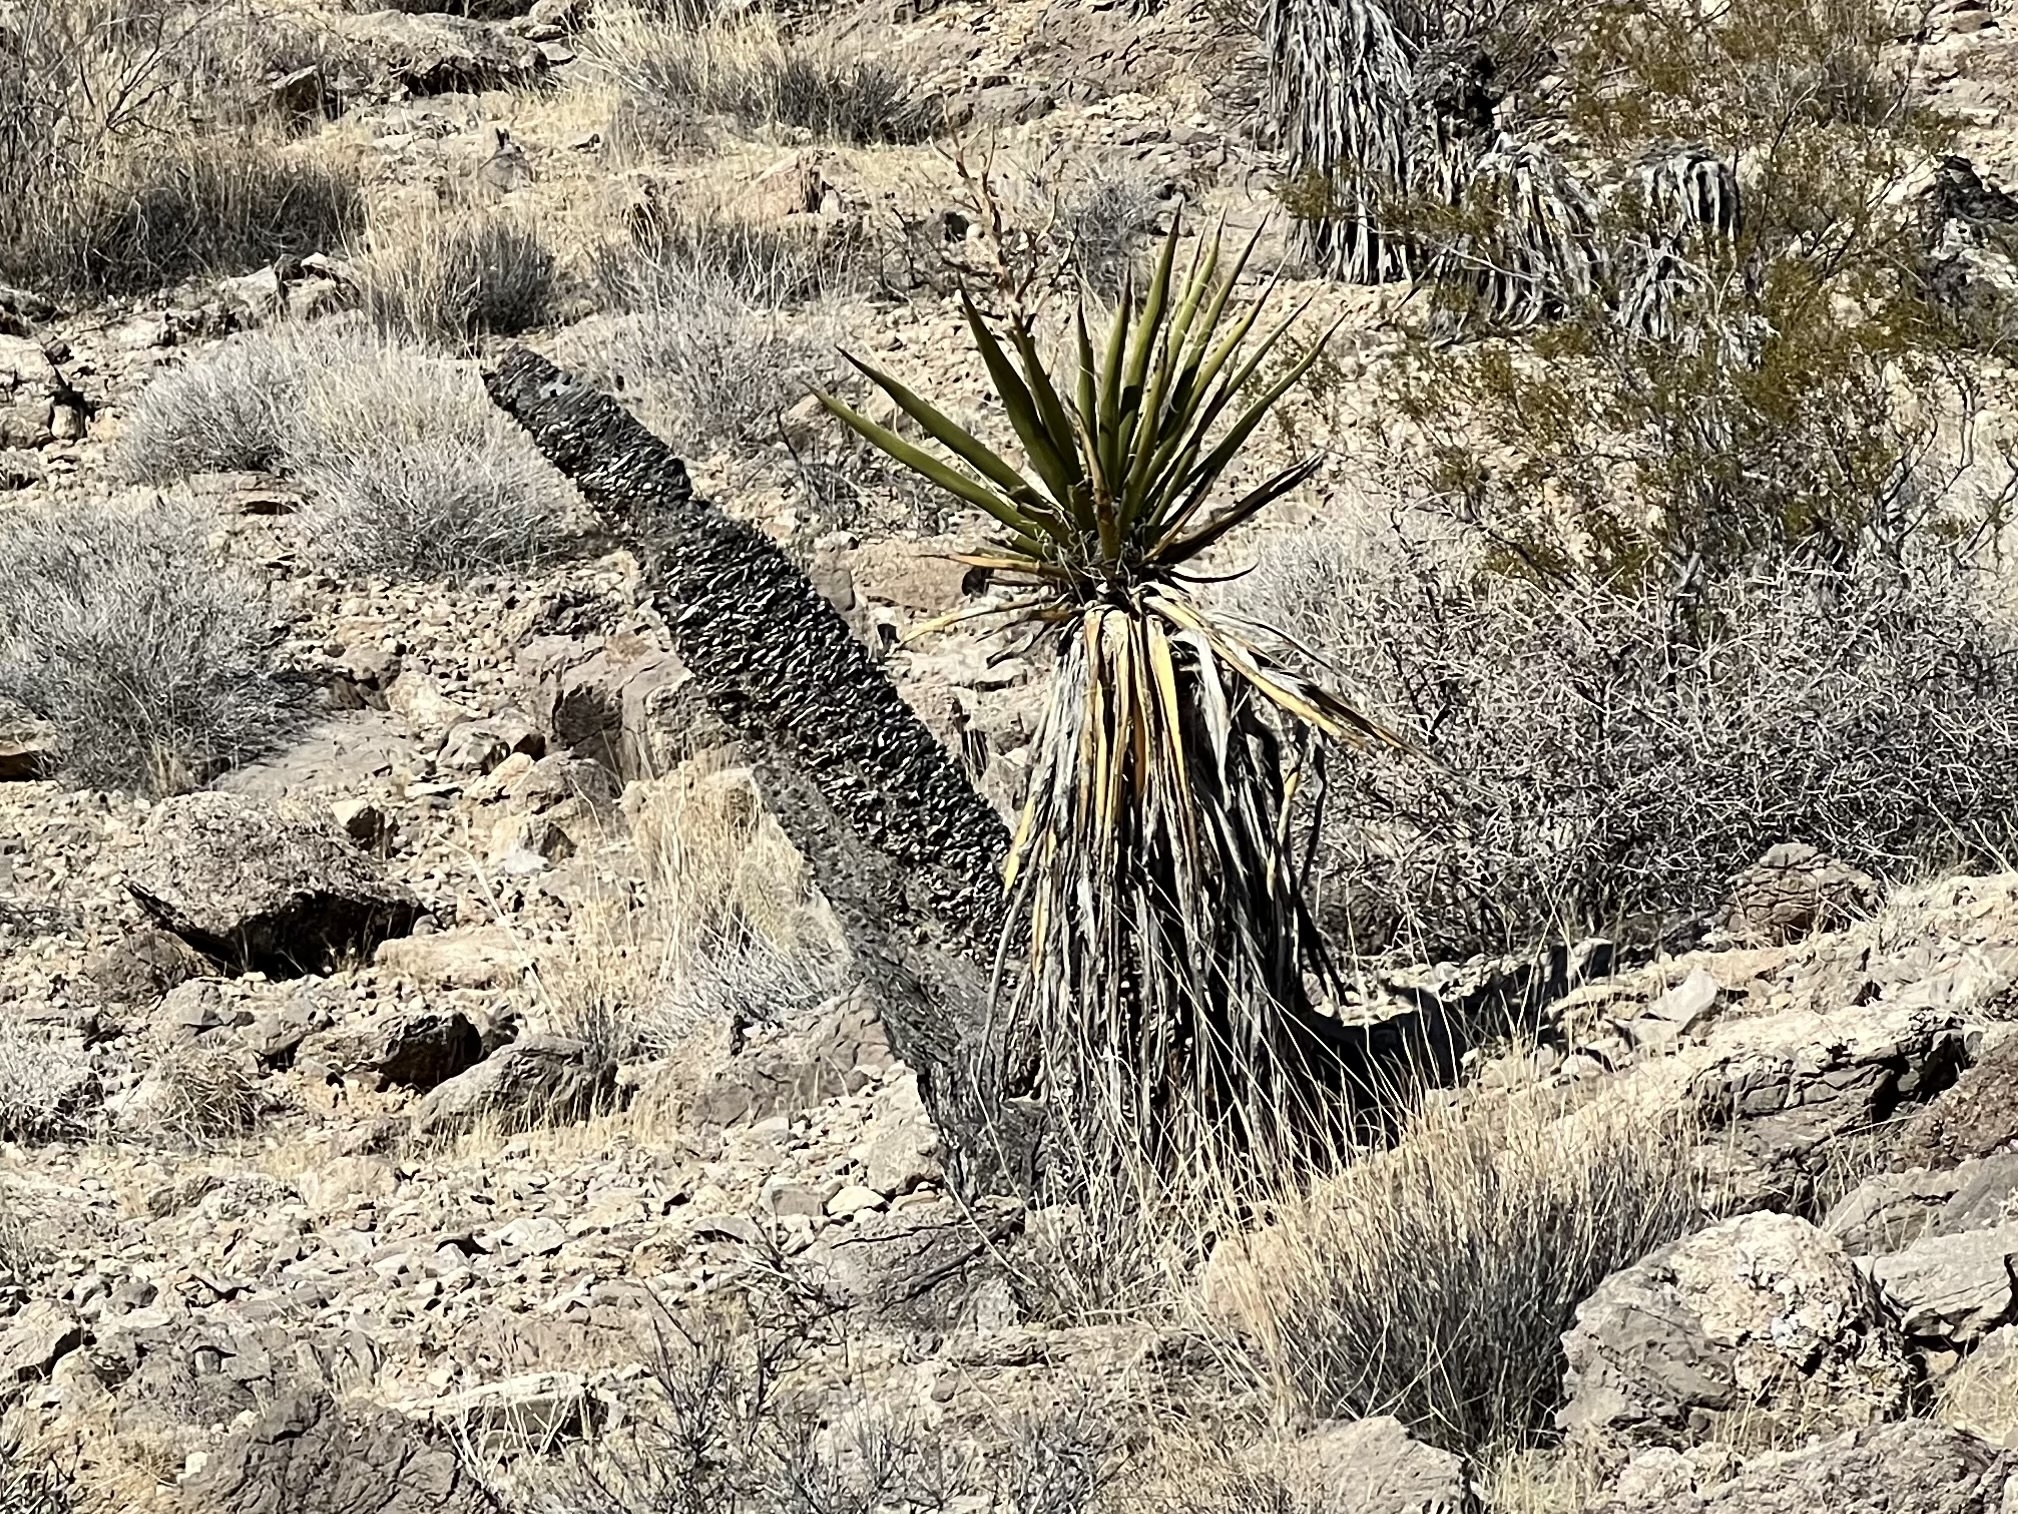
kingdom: Plantae
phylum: Tracheophyta
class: Liliopsida
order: Asparagales
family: Asparagaceae
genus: Yucca
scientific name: Yucca schidigera
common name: Mojave yucca
